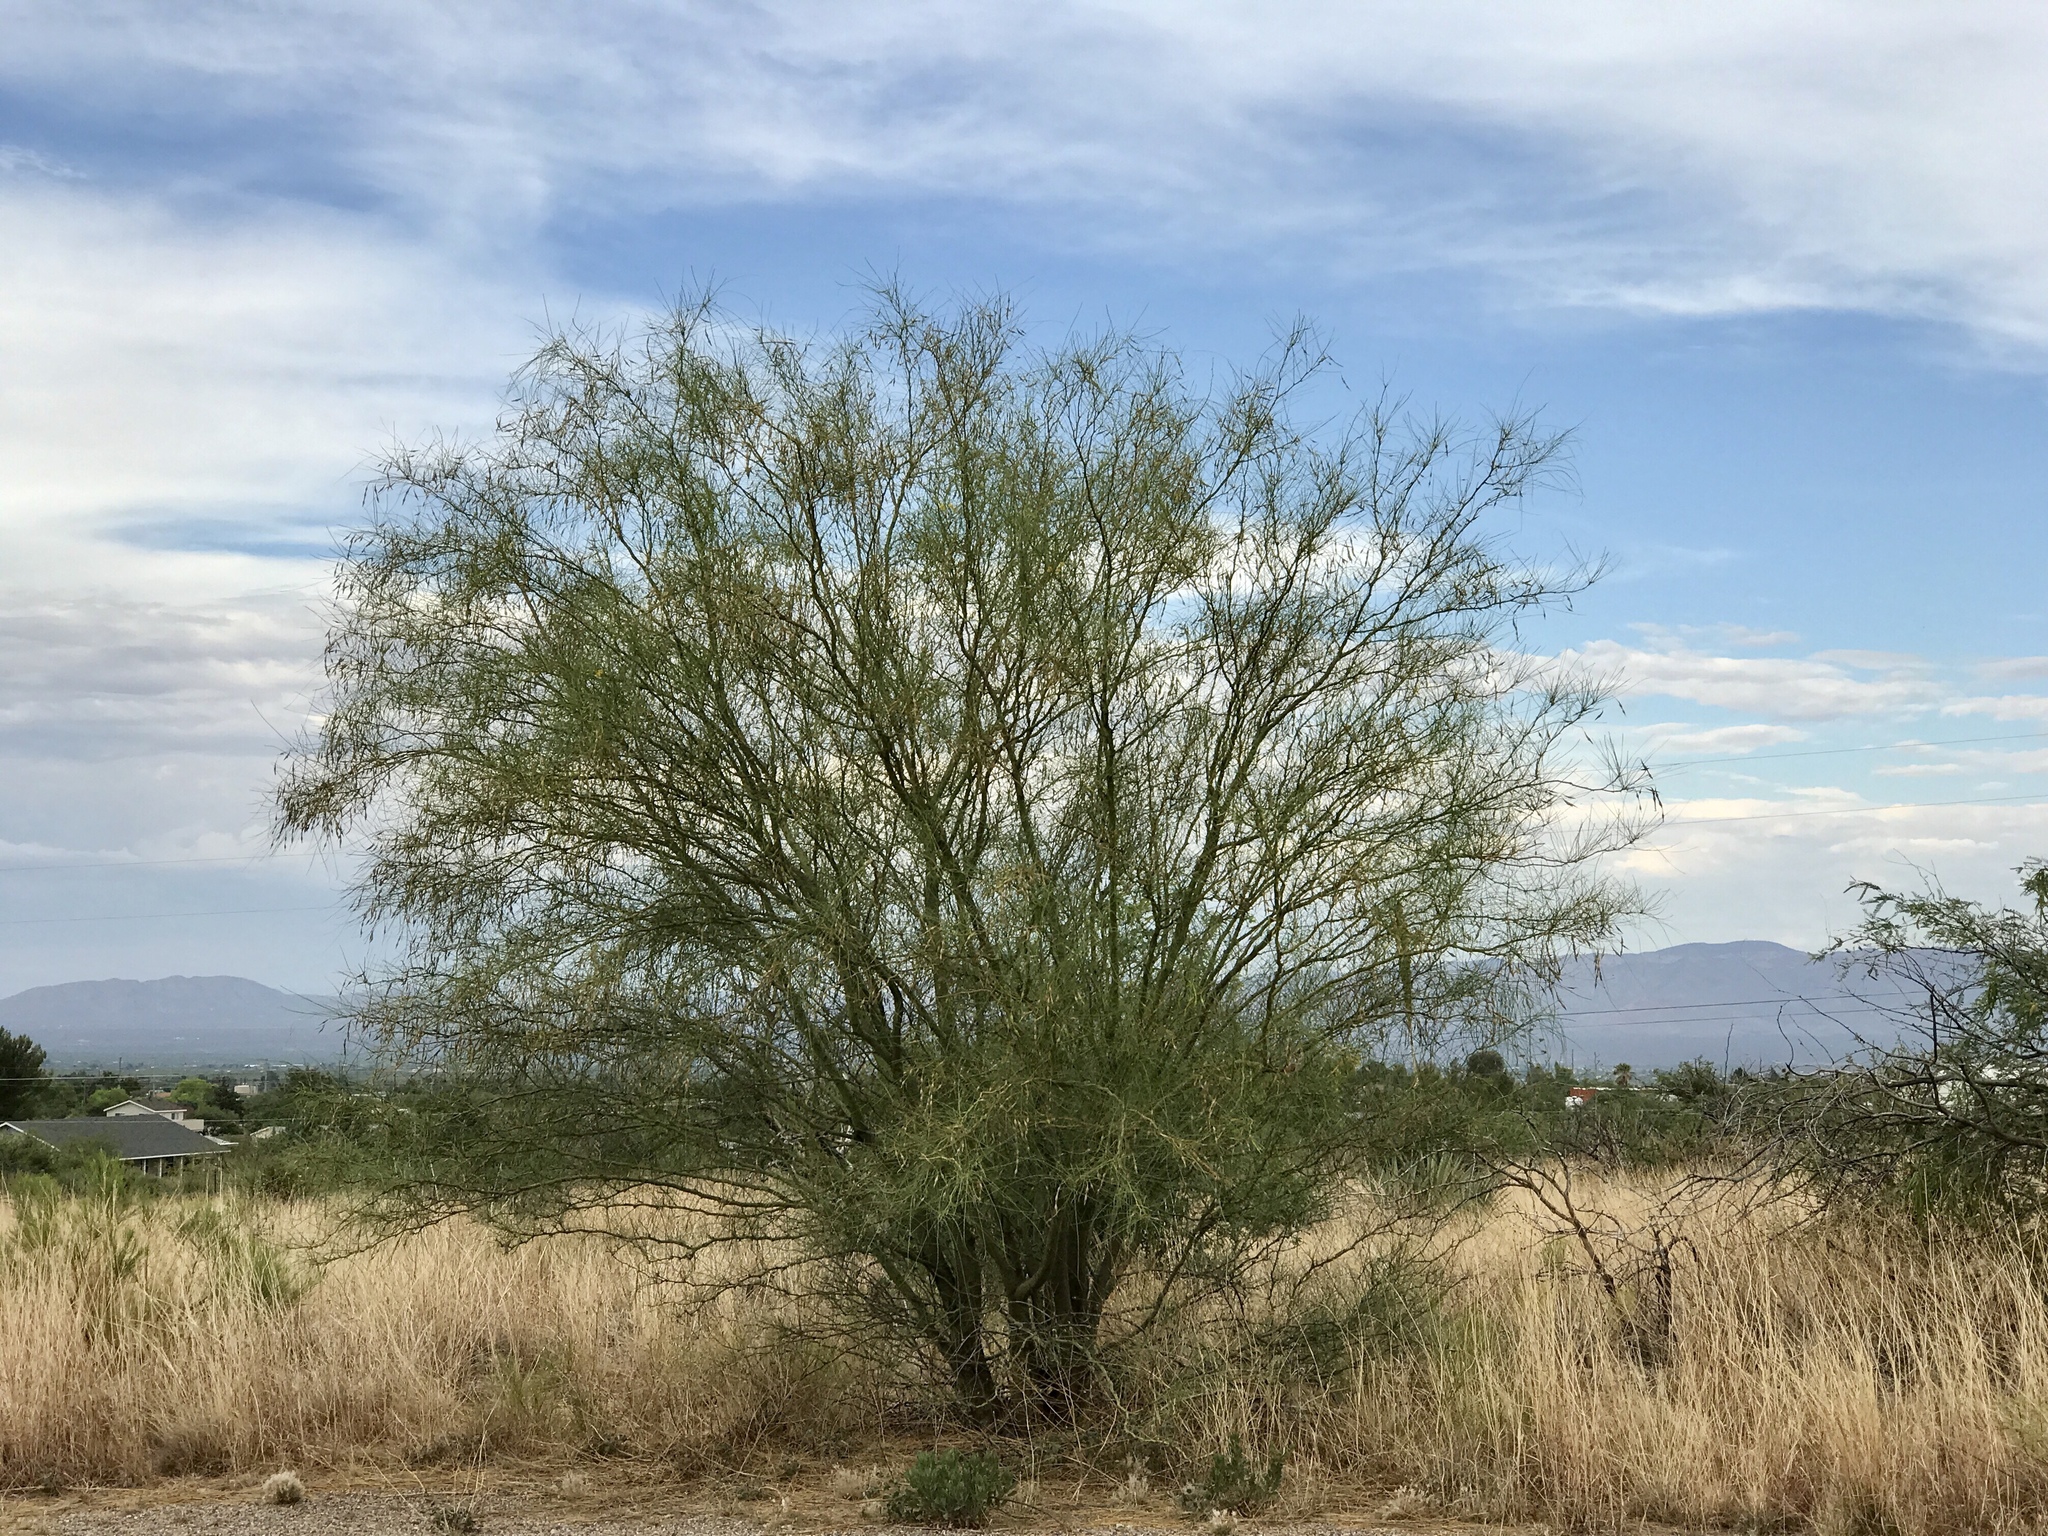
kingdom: Plantae
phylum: Tracheophyta
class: Magnoliopsida
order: Fabales
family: Fabaceae
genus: Parkinsonia
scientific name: Parkinsonia aculeata
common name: Jerusalem thorn
